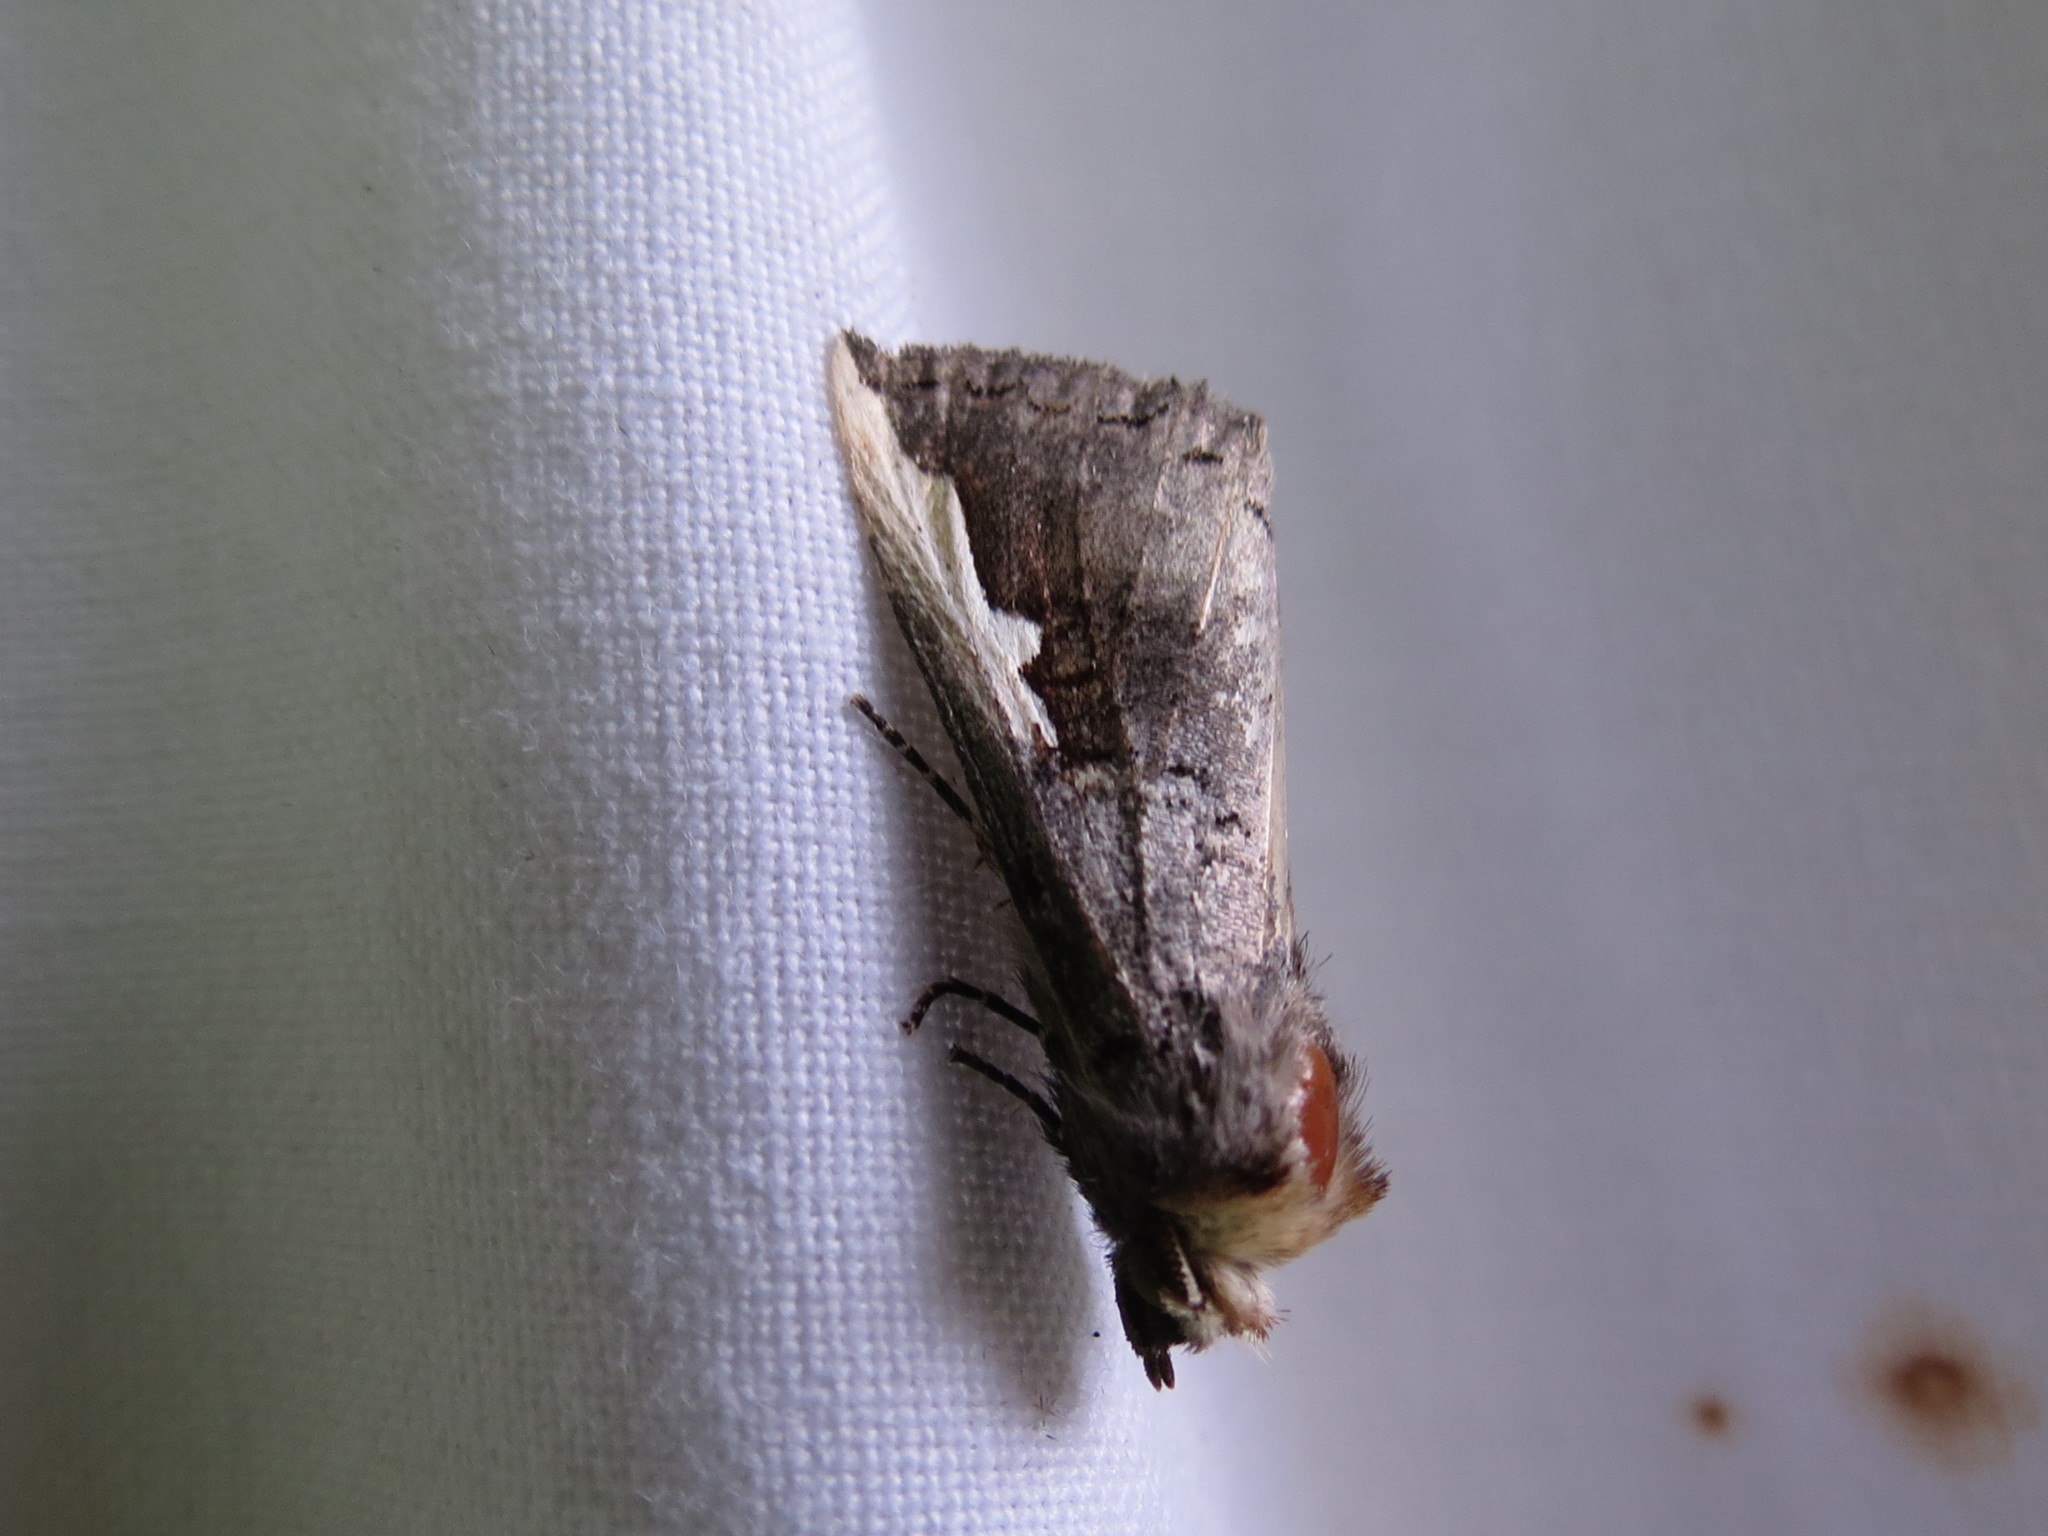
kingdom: Animalia
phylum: Arthropoda
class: Insecta
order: Lepidoptera
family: Notodontidae
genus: Symmerista
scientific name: Symmerista
